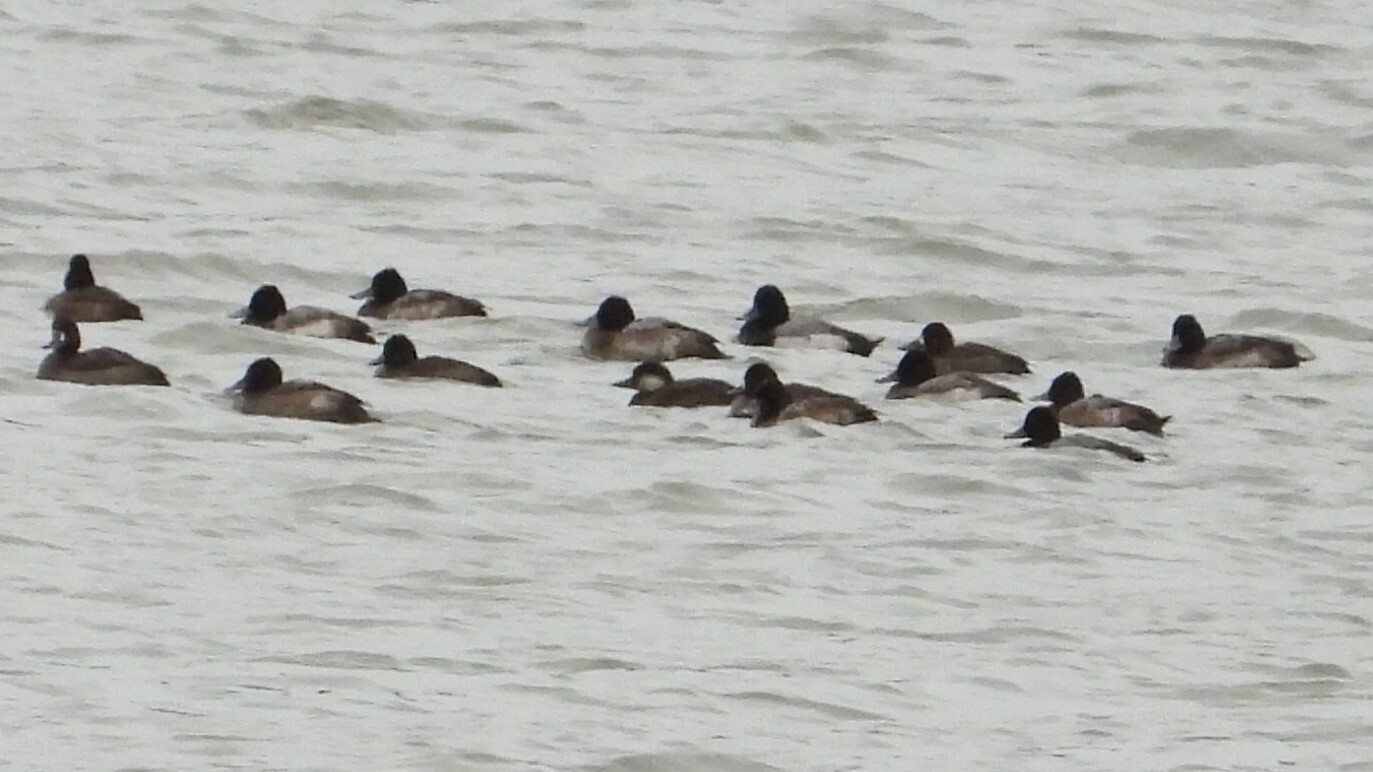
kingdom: Animalia
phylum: Chordata
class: Aves
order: Anseriformes
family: Anatidae
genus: Melanitta
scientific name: Melanitta americana
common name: Black scoter
